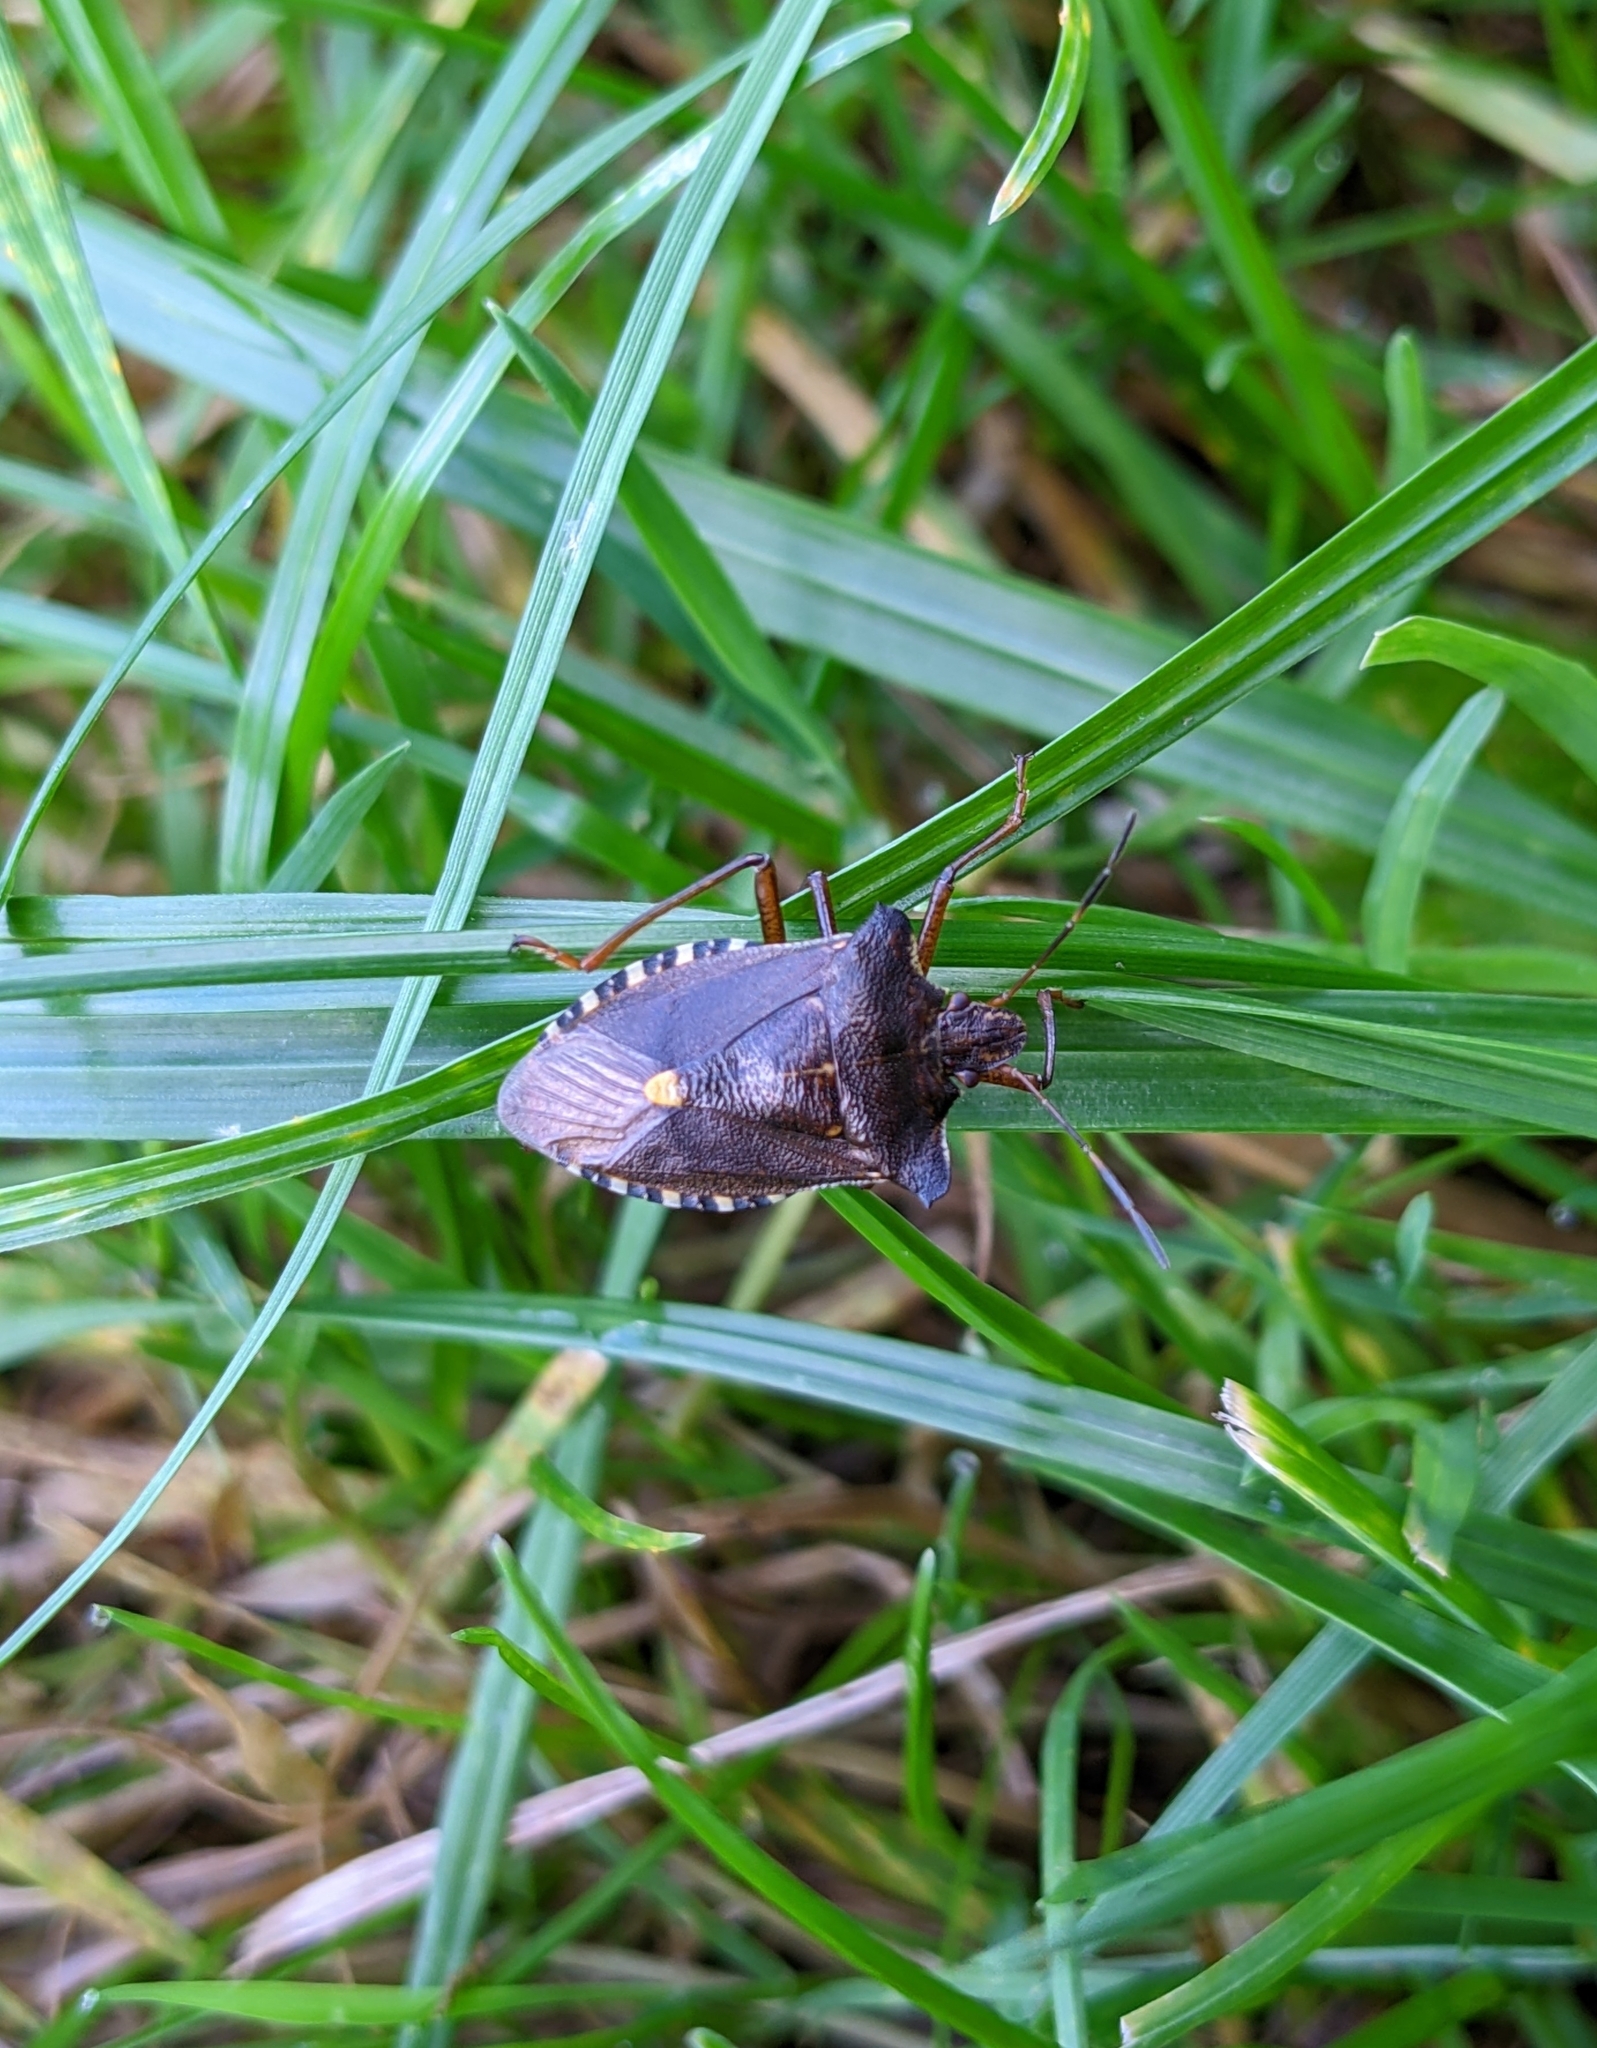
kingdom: Animalia
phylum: Arthropoda
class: Insecta
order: Hemiptera
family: Pentatomidae
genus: Pentatoma
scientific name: Pentatoma rufipes
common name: Forest bug
